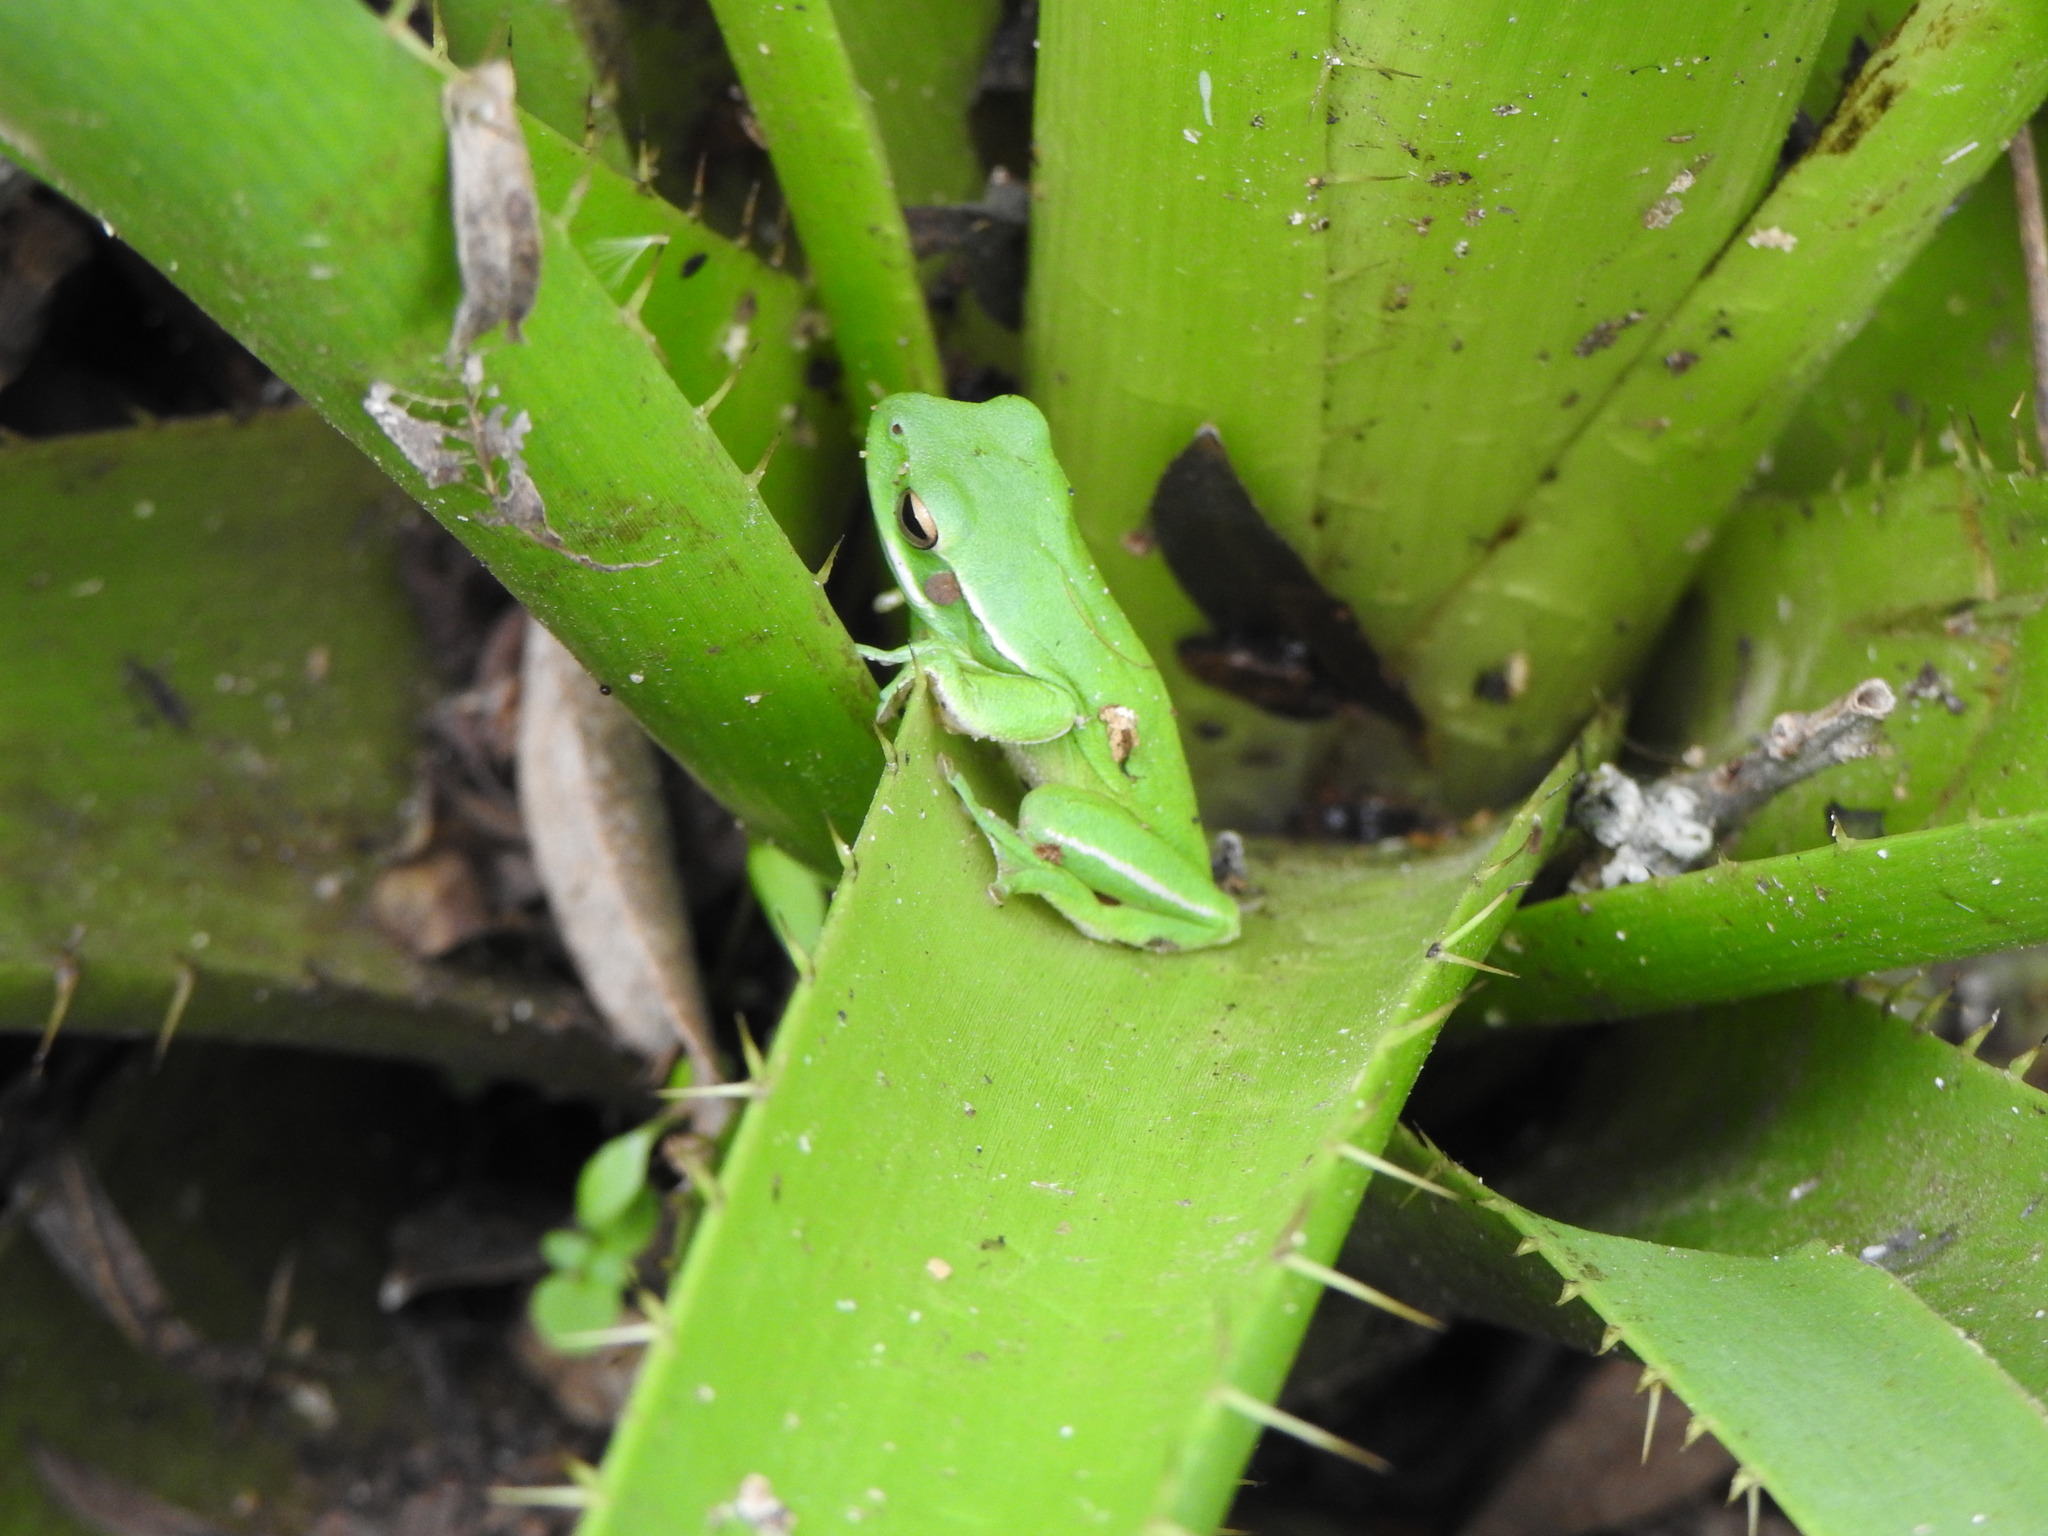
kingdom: Animalia
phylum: Chordata
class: Amphibia
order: Anura
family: Hylidae
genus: Boana
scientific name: Boana pulchella
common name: Montevideo treefrog
